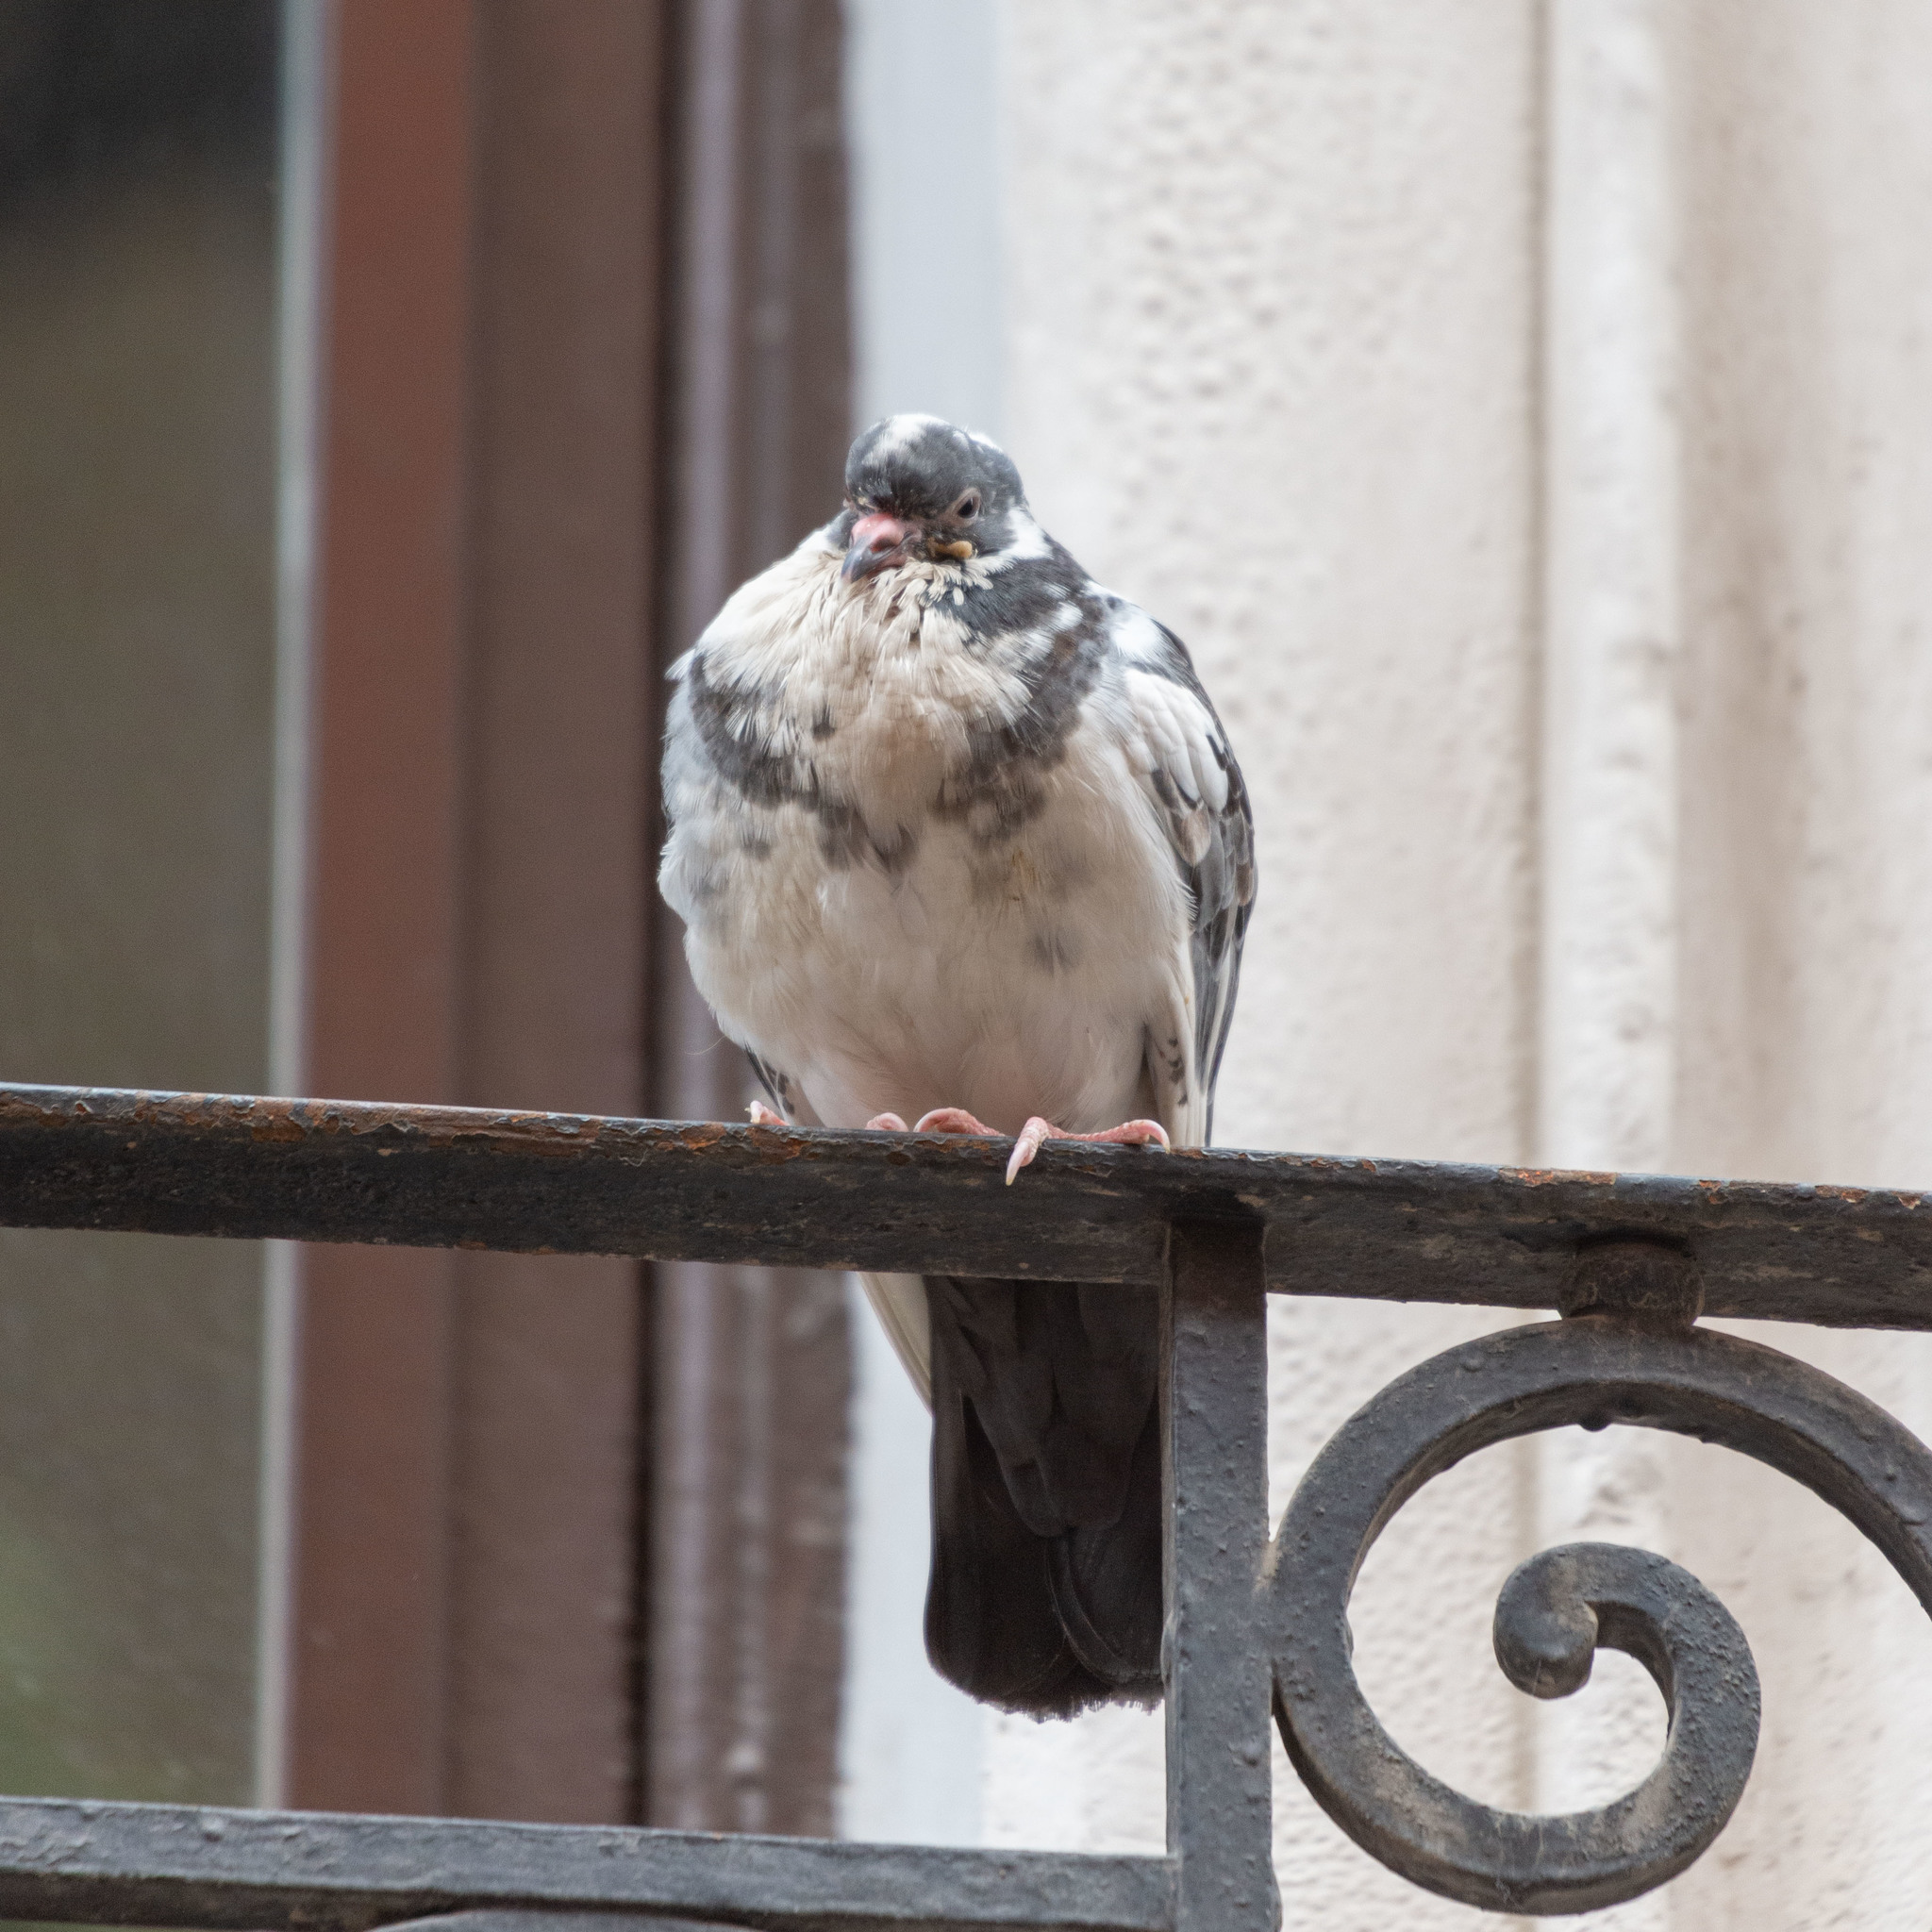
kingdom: Animalia
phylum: Chordata
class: Aves
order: Columbiformes
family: Columbidae
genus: Columba
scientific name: Columba livia
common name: Rock pigeon
